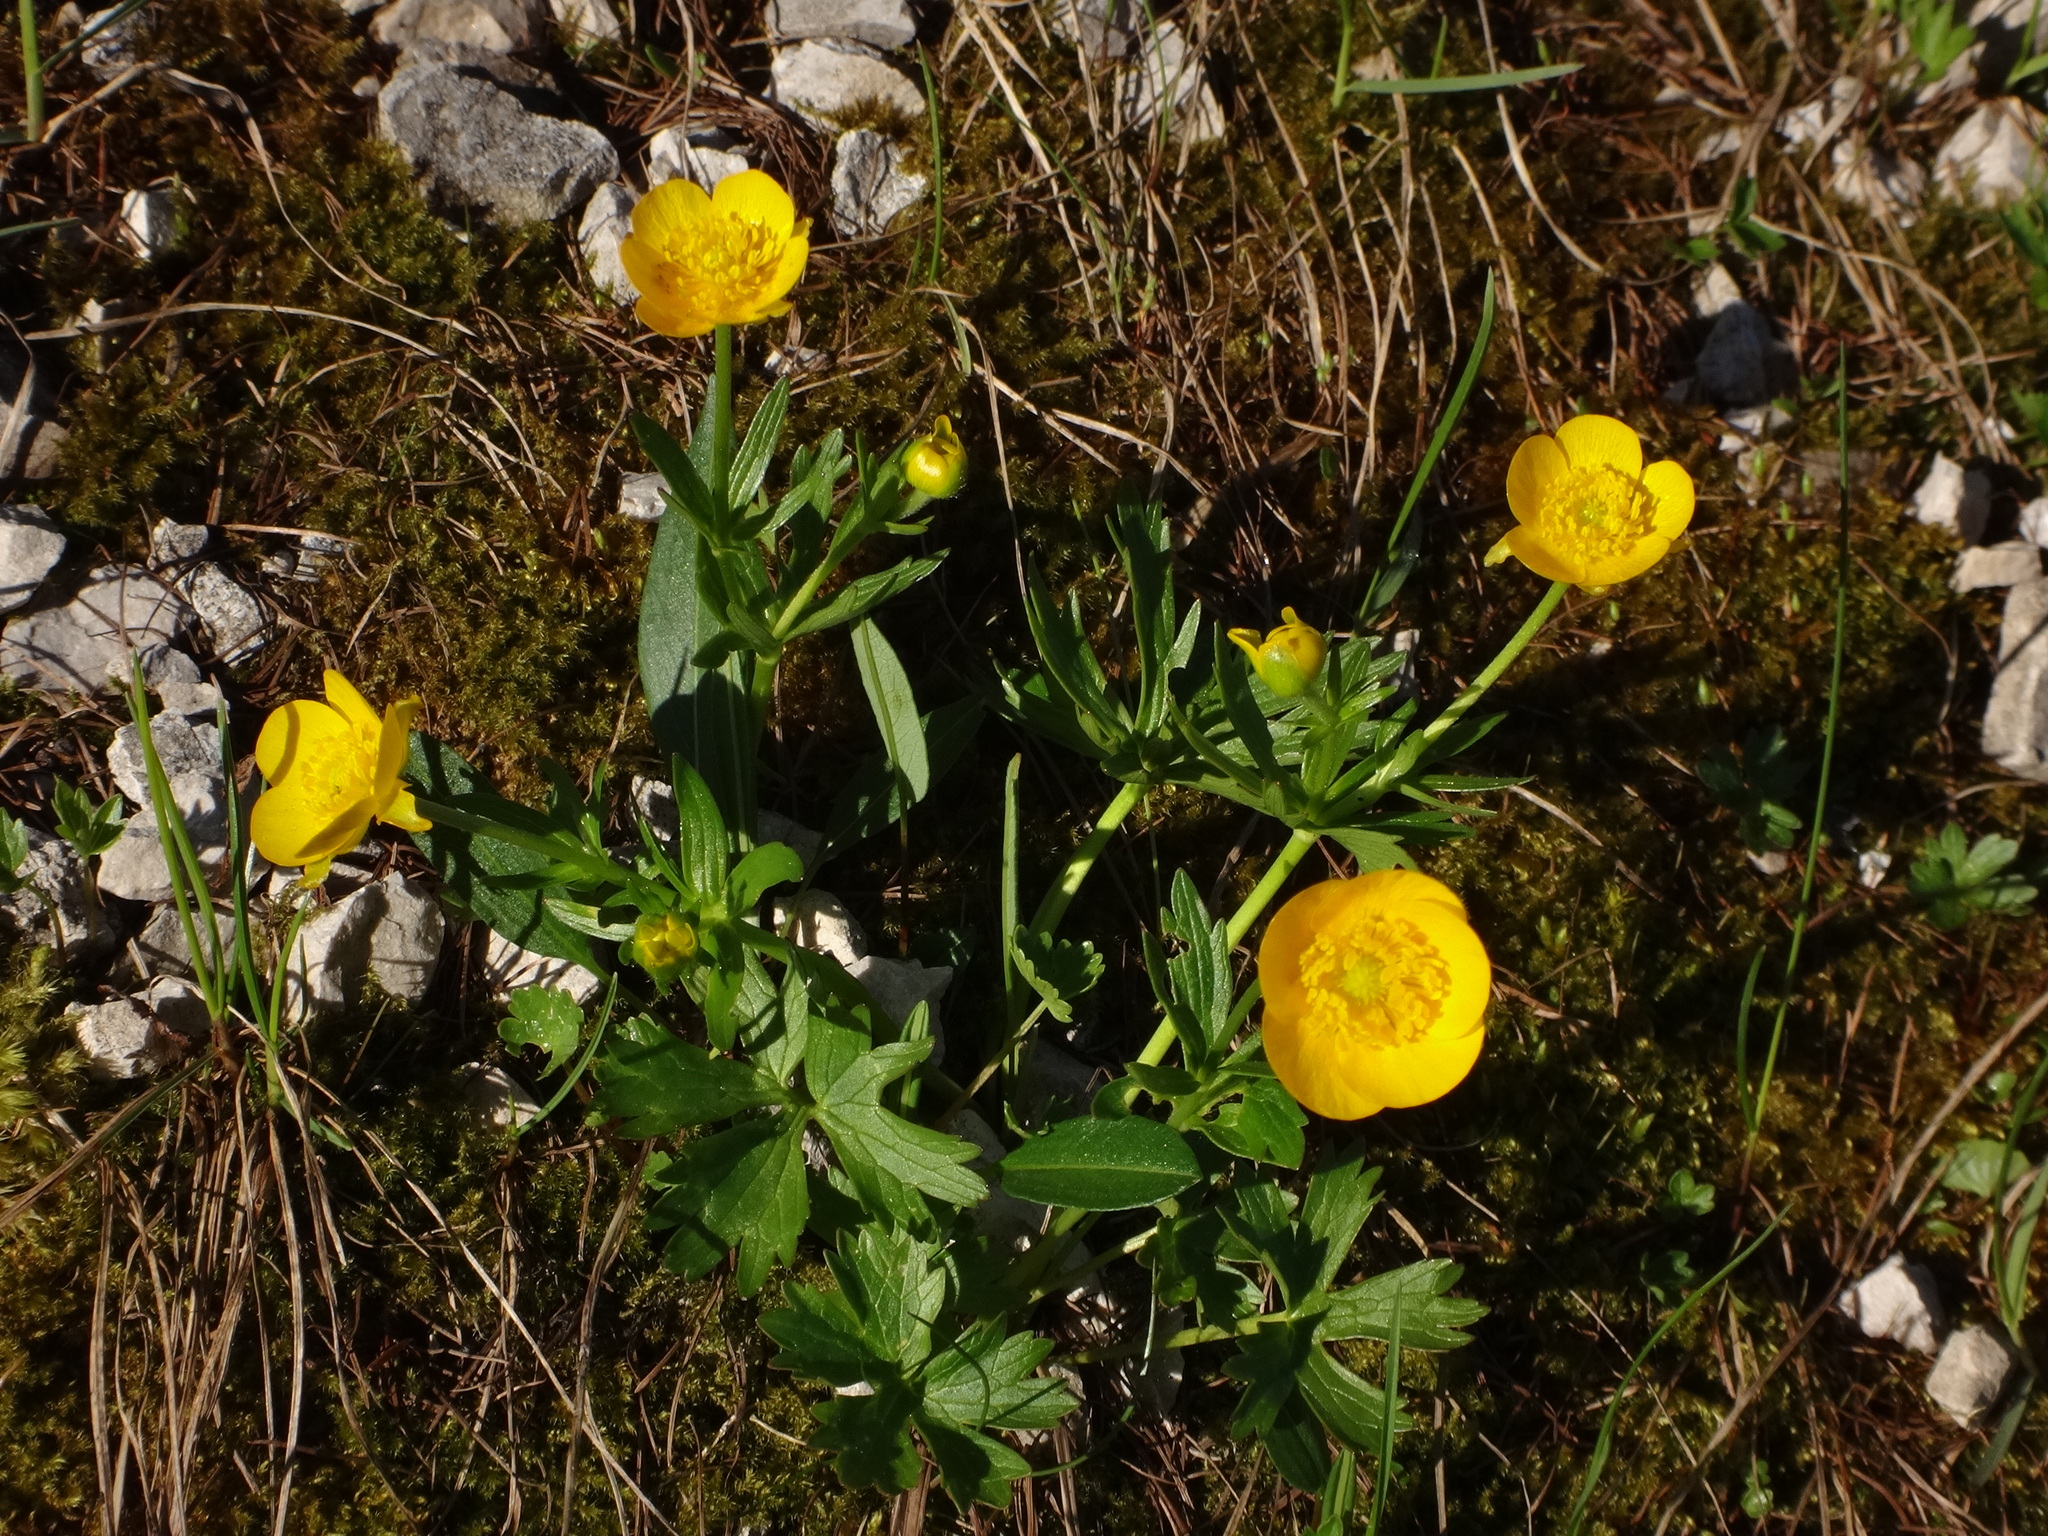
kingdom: Plantae
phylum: Tracheophyta
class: Magnoliopsida
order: Ranunculales
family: Ranunculaceae
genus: Ranunculus
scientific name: Ranunculus montanus
